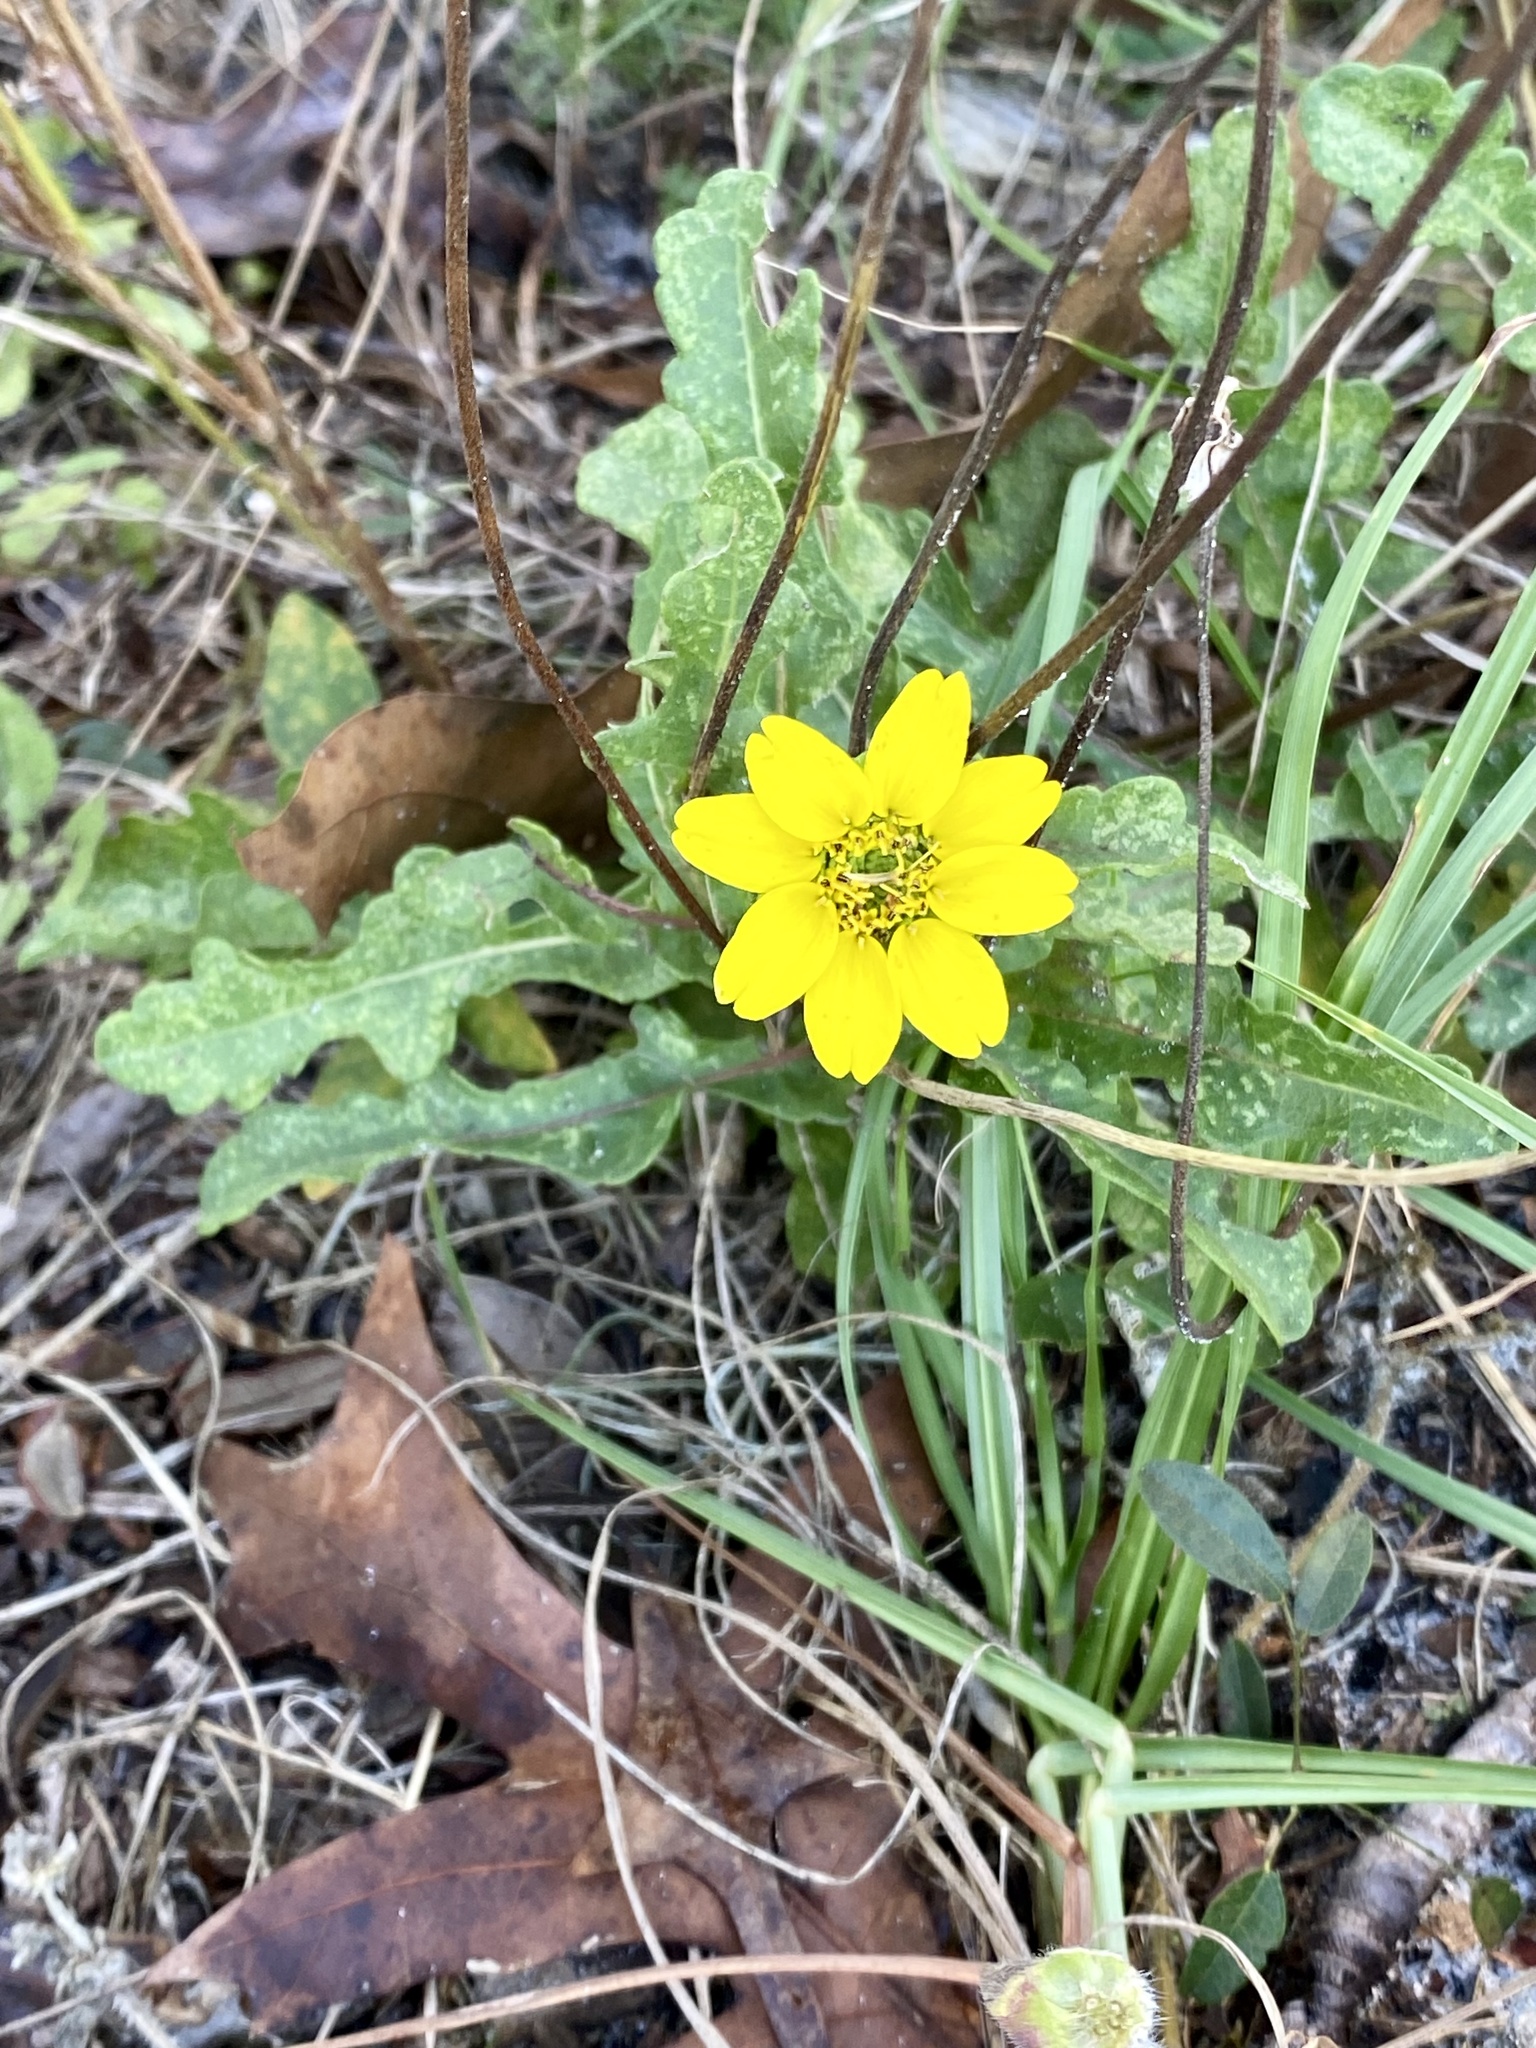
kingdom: Plantae
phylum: Tracheophyta
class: Magnoliopsida
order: Asterales
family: Asteraceae
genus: Berlandiera
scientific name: Berlandiera subacaulis
